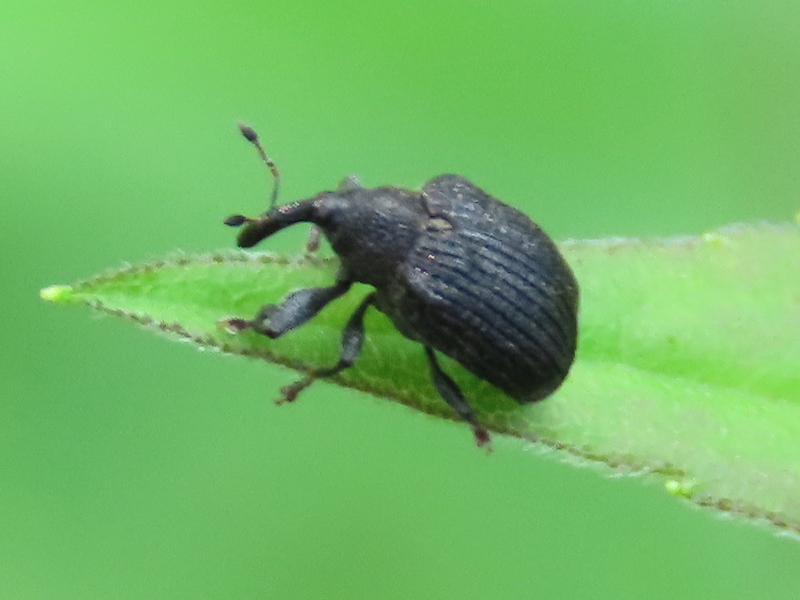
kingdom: Animalia
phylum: Arthropoda
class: Insecta
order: Coleoptera
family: Curculionidae
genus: Odontopus
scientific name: Odontopus calceatus
